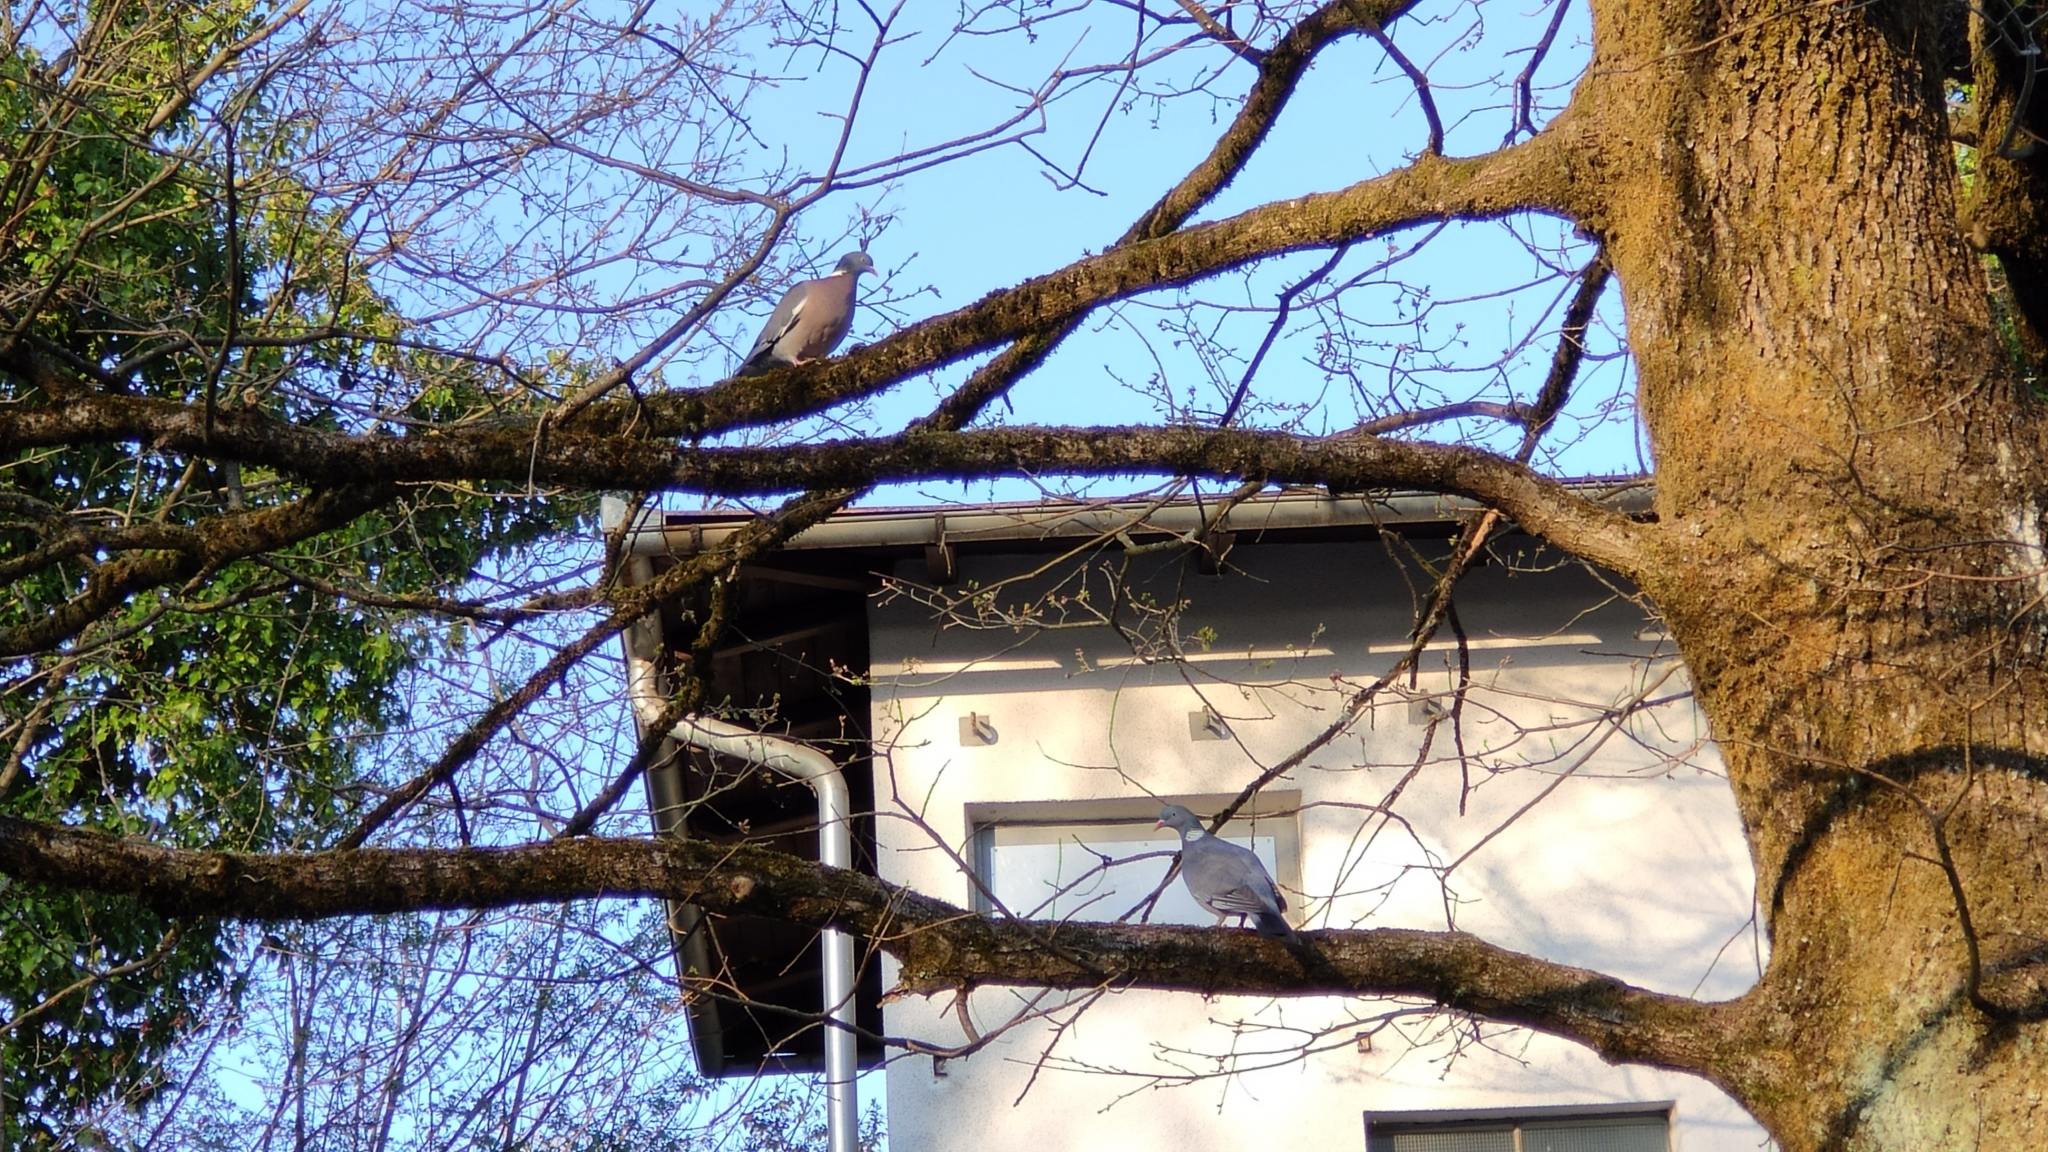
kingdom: Animalia
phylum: Chordata
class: Aves
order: Columbiformes
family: Columbidae
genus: Columba
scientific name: Columba palumbus
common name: Common wood pigeon
